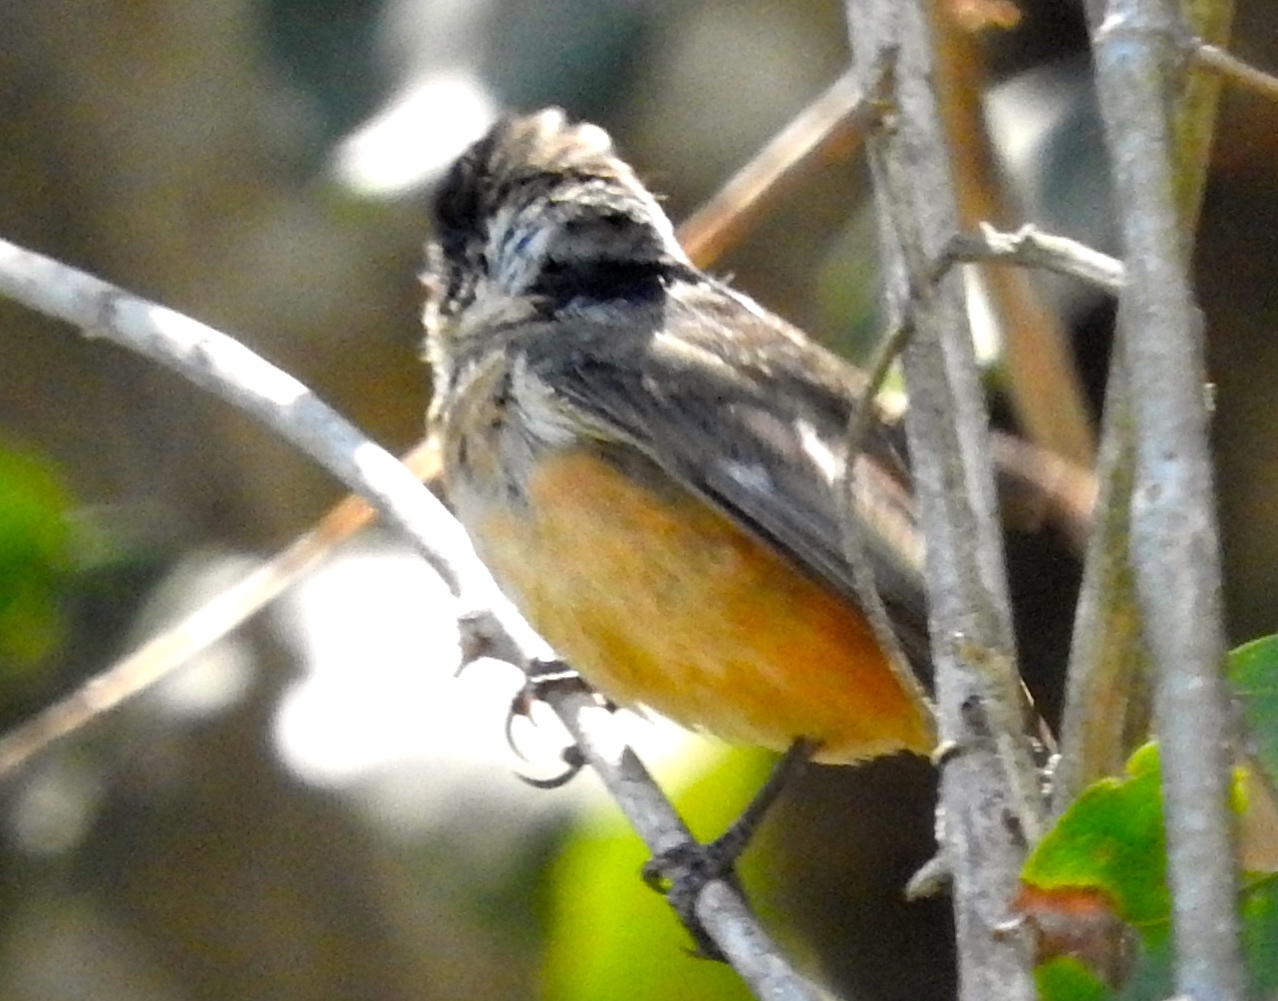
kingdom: Animalia
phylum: Chordata
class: Aves
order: Passeriformes
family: Thraupidae
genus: Sporophila
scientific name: Sporophila torqueola
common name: White-collared seedeater
